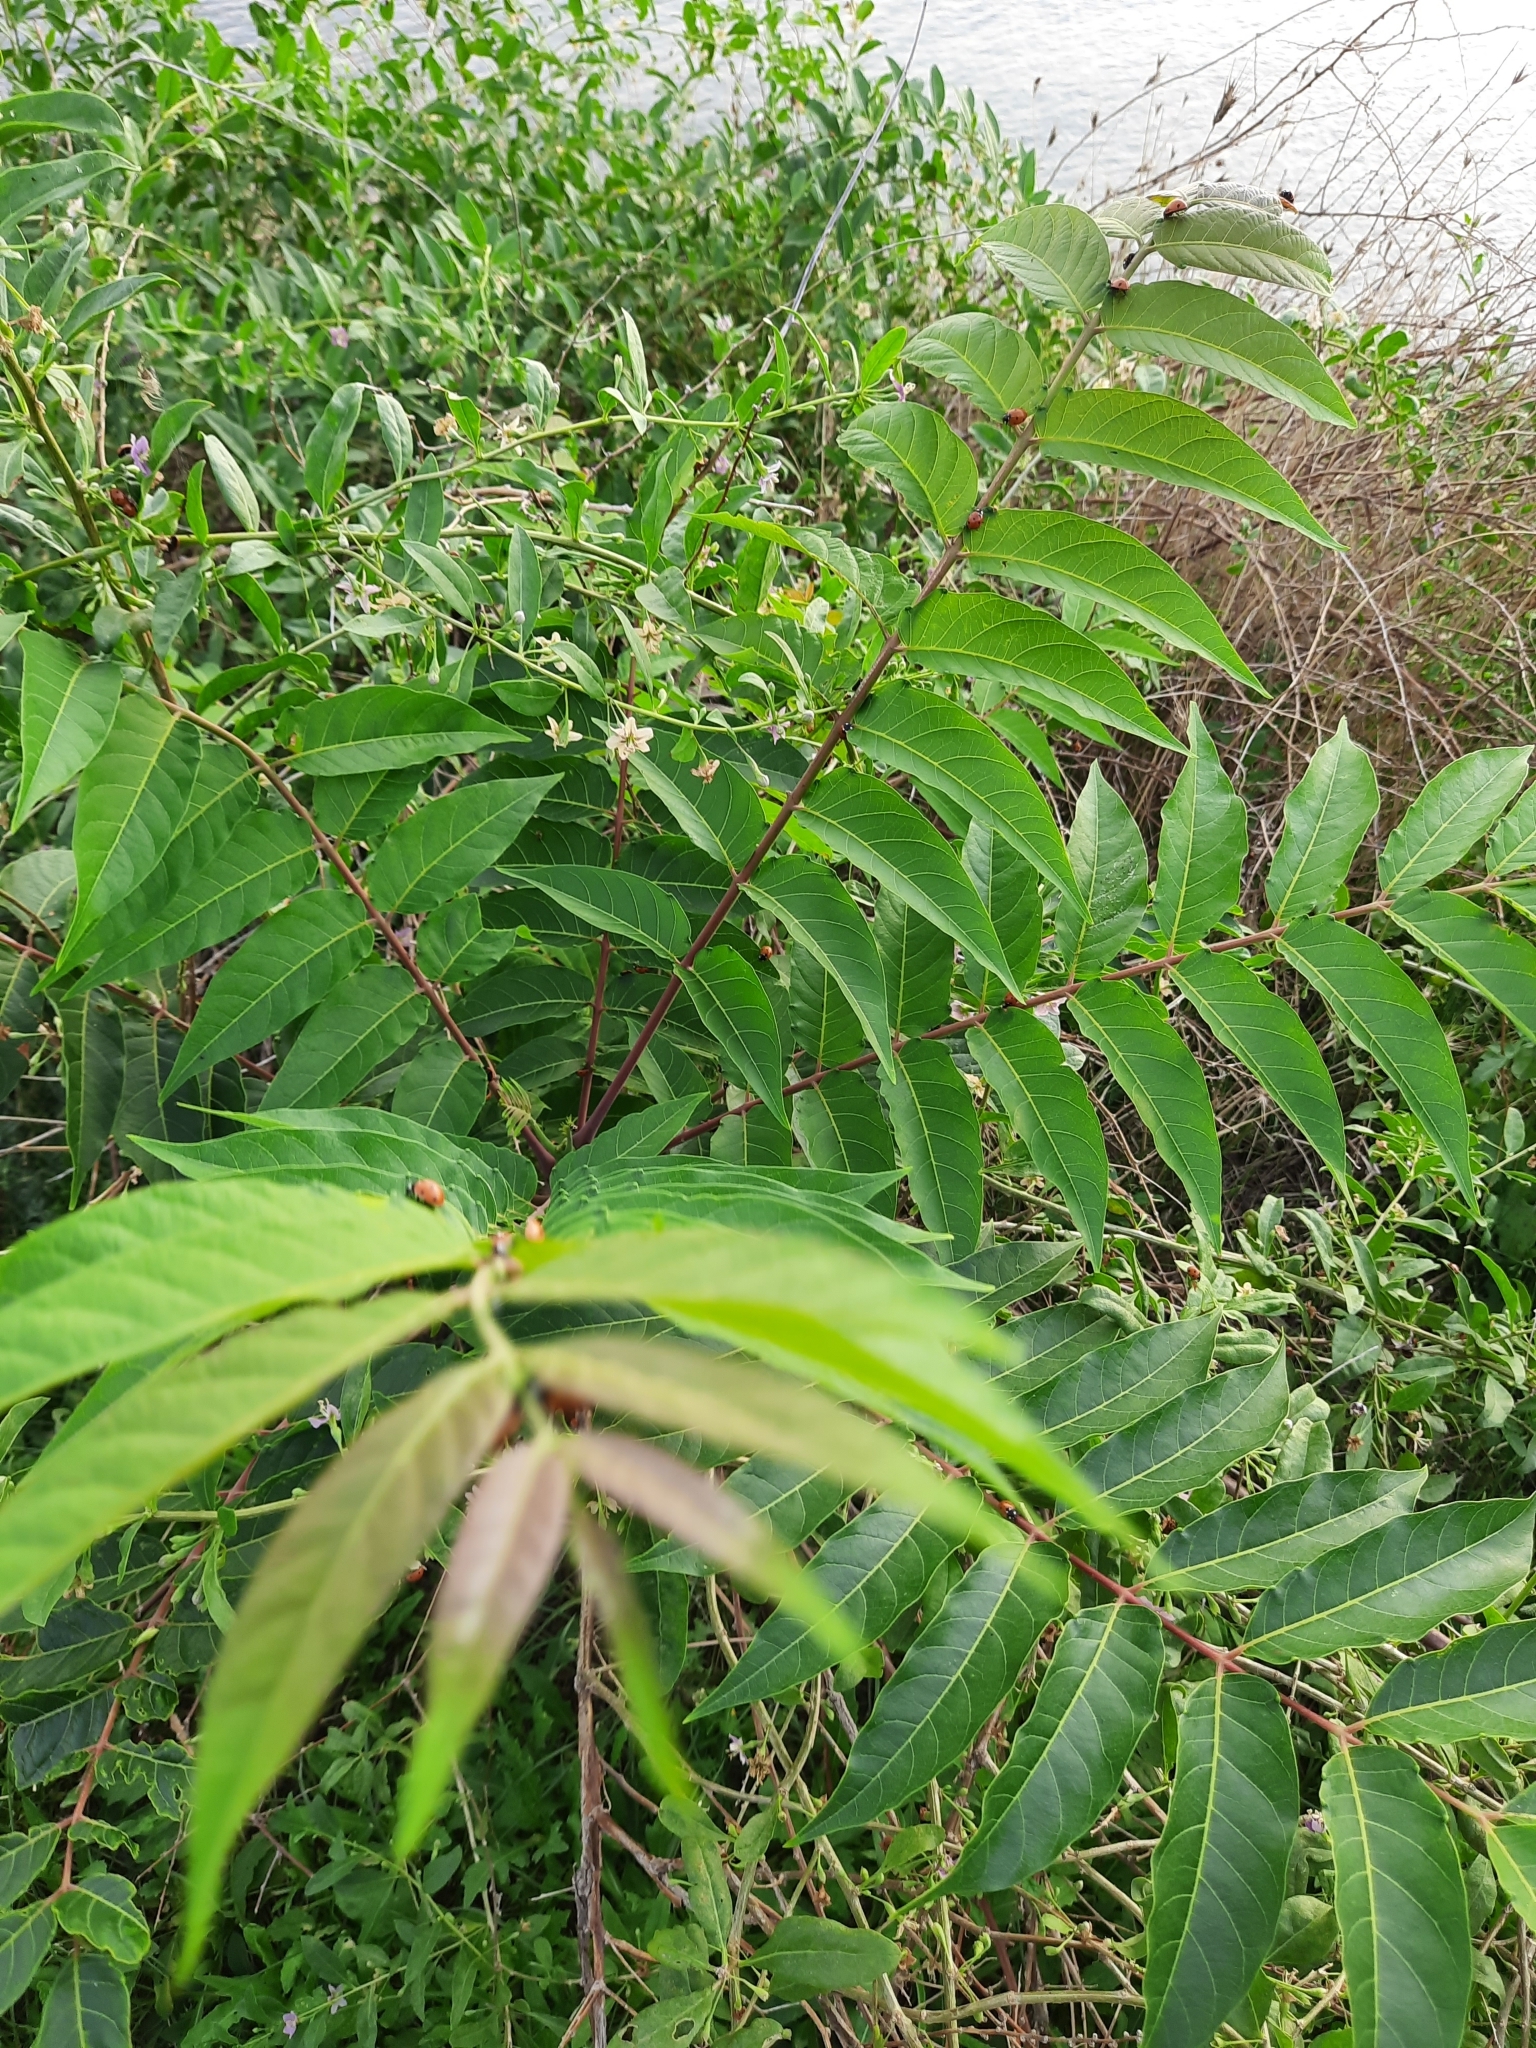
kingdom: Plantae
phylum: Tracheophyta
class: Magnoliopsida
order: Sapindales
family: Simaroubaceae
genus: Ailanthus
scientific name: Ailanthus altissima
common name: Tree-of-heaven
